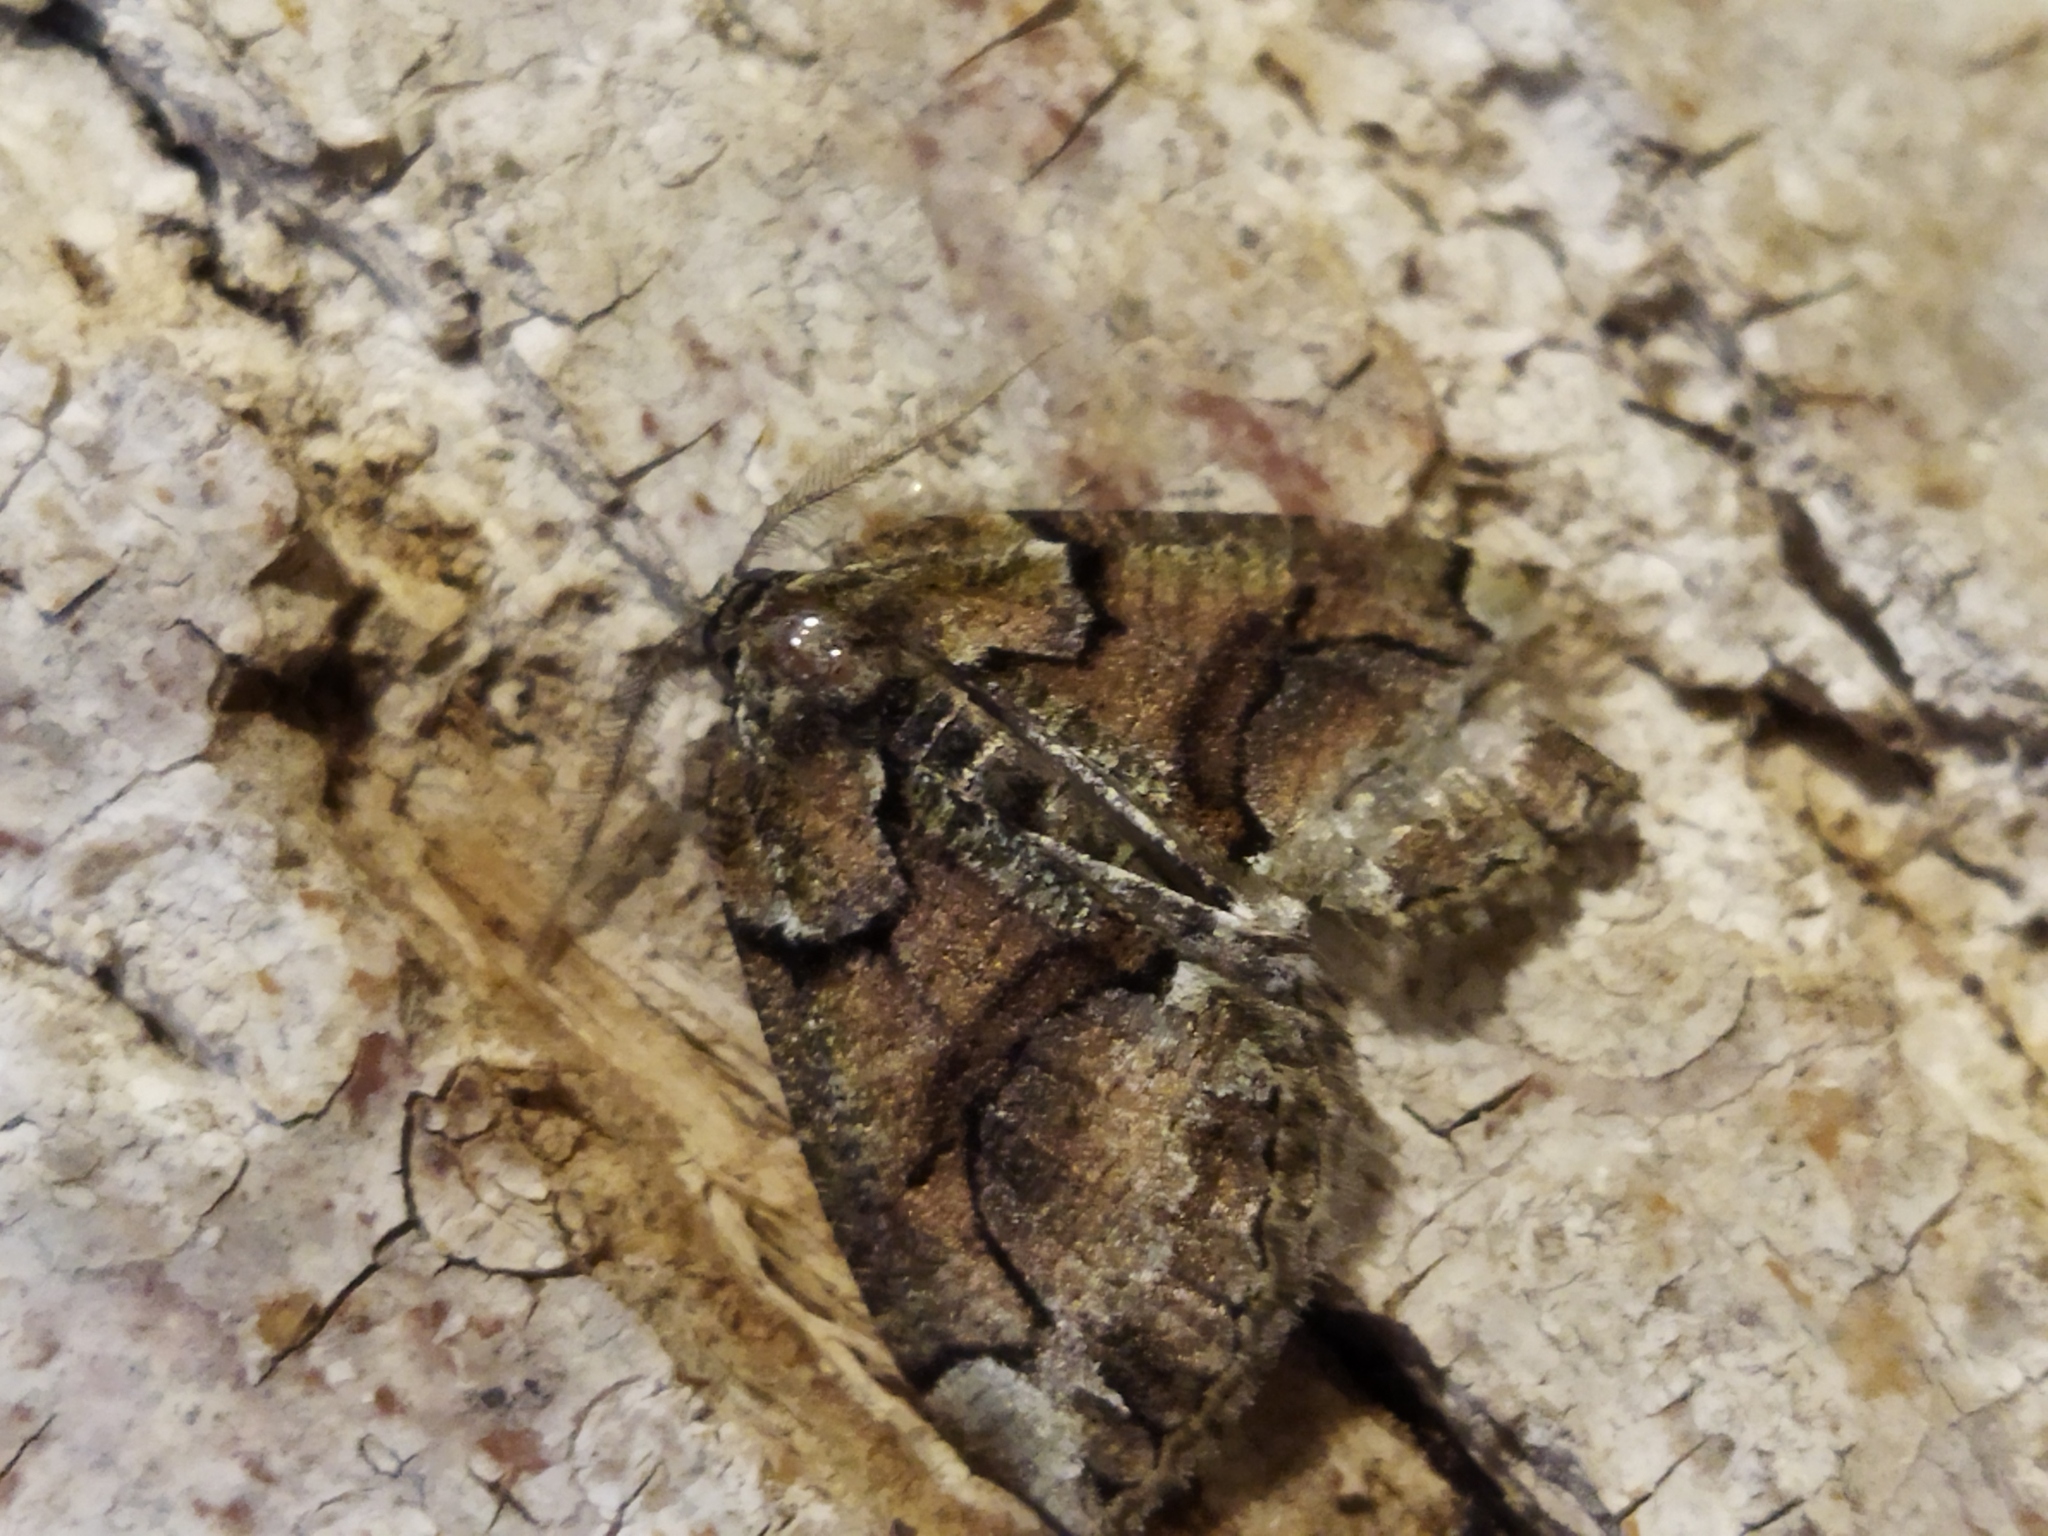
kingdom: Animalia
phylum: Arthropoda
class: Insecta
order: Lepidoptera
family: Geometridae
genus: Asovia
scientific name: Asovia maeoticaria
